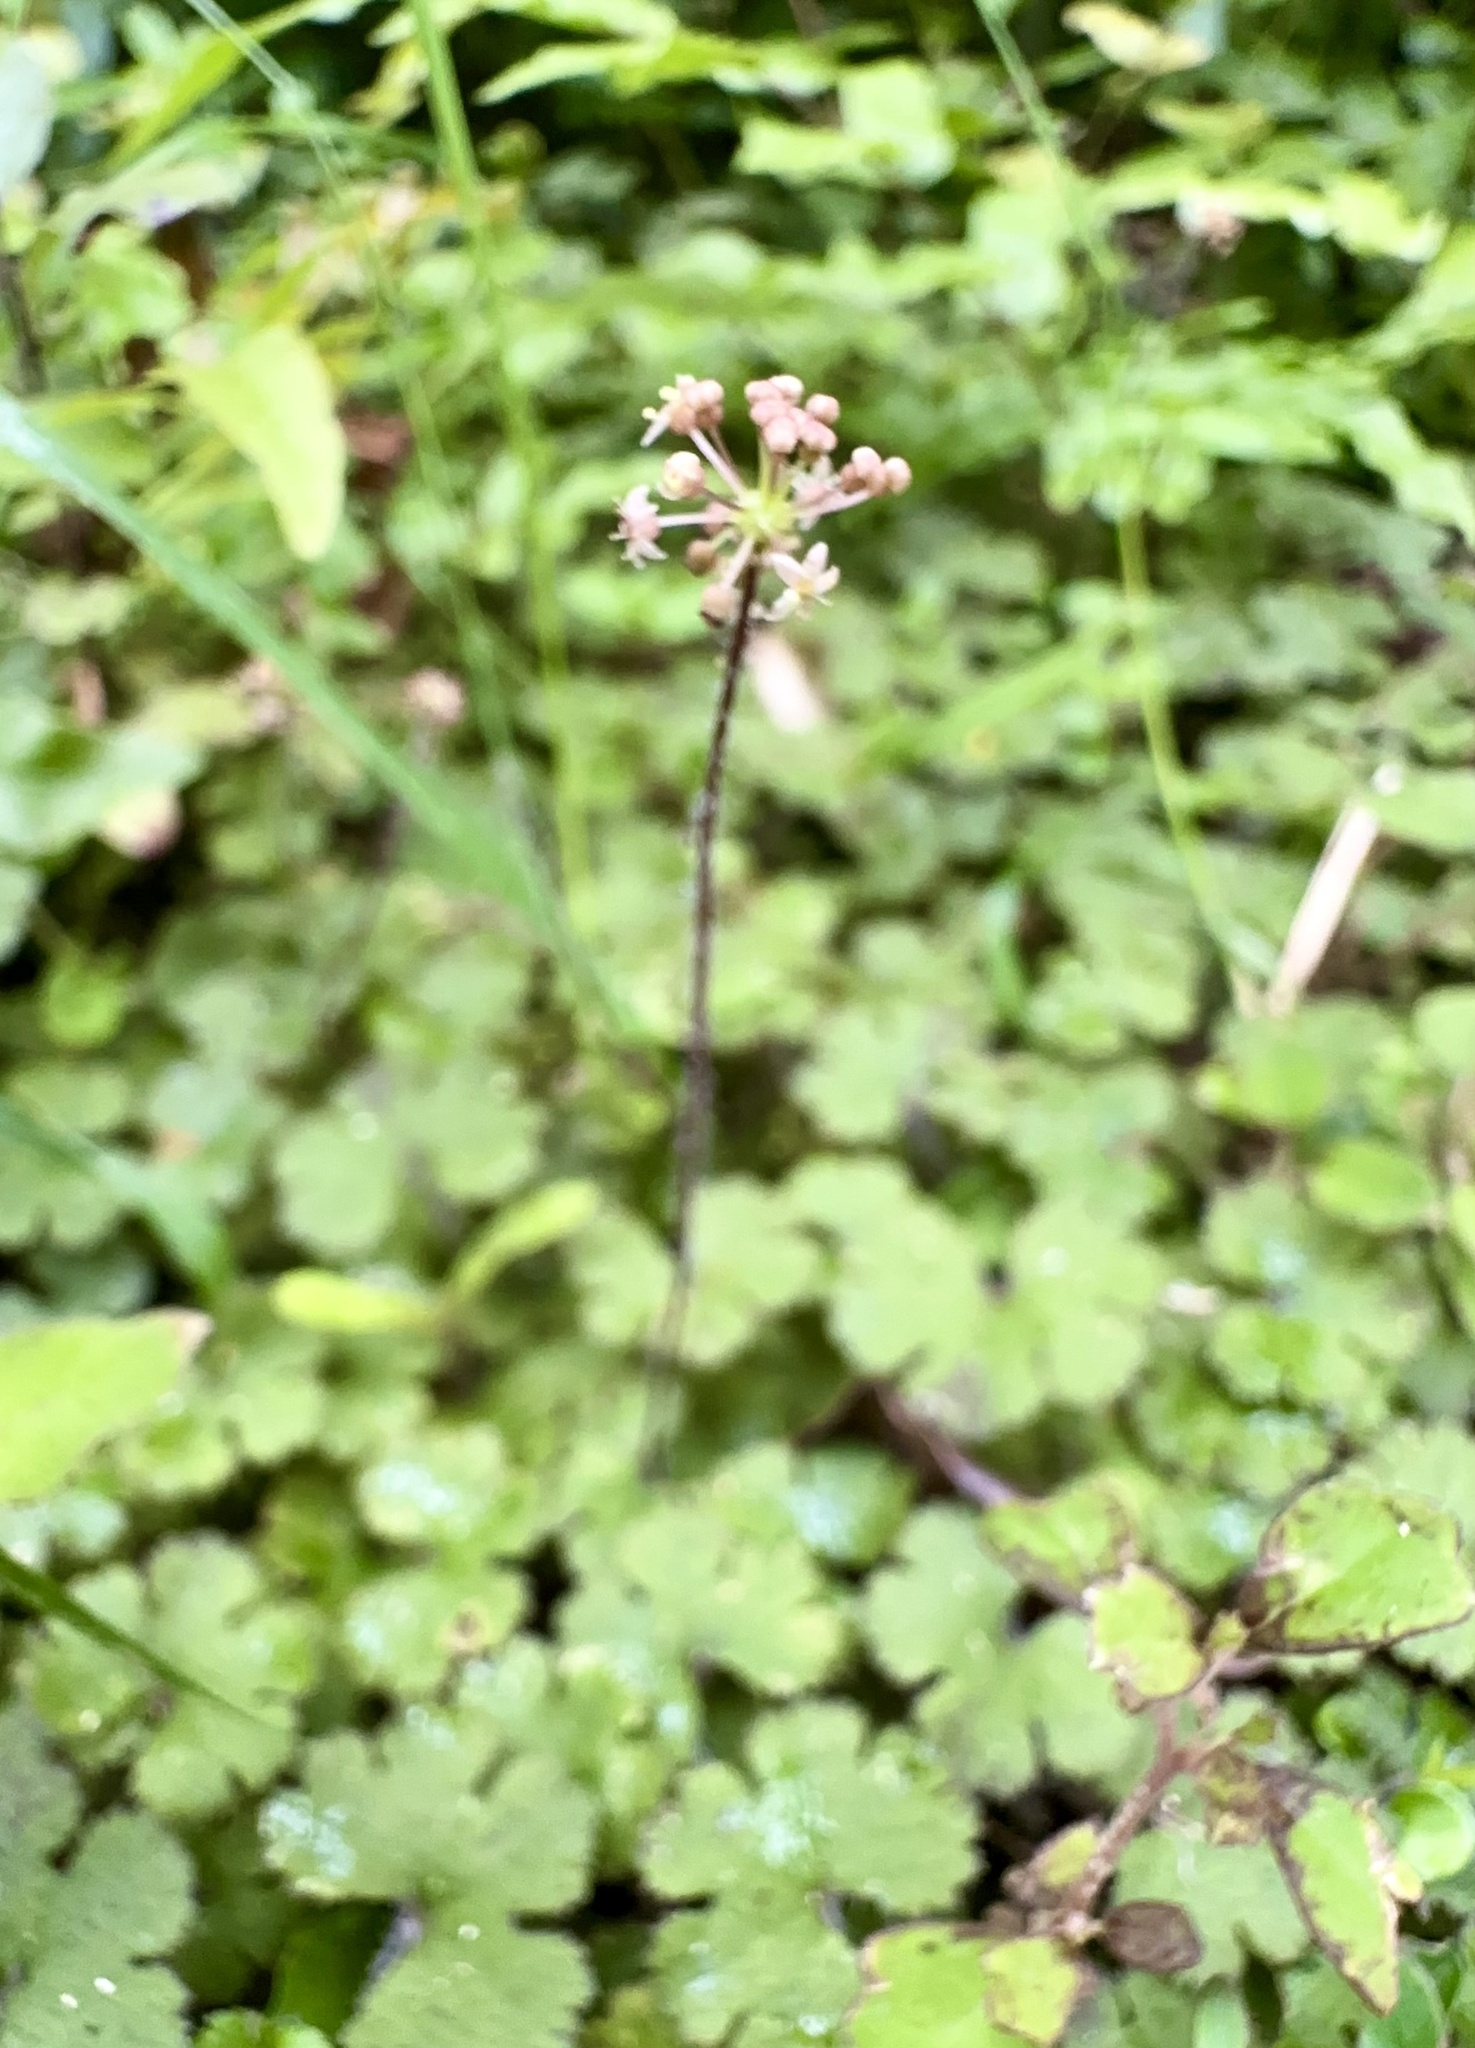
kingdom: Plantae
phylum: Tracheophyta
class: Magnoliopsida
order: Apiales
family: Araliaceae
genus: Hydrocotyle
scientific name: Hydrocotyle elongata
